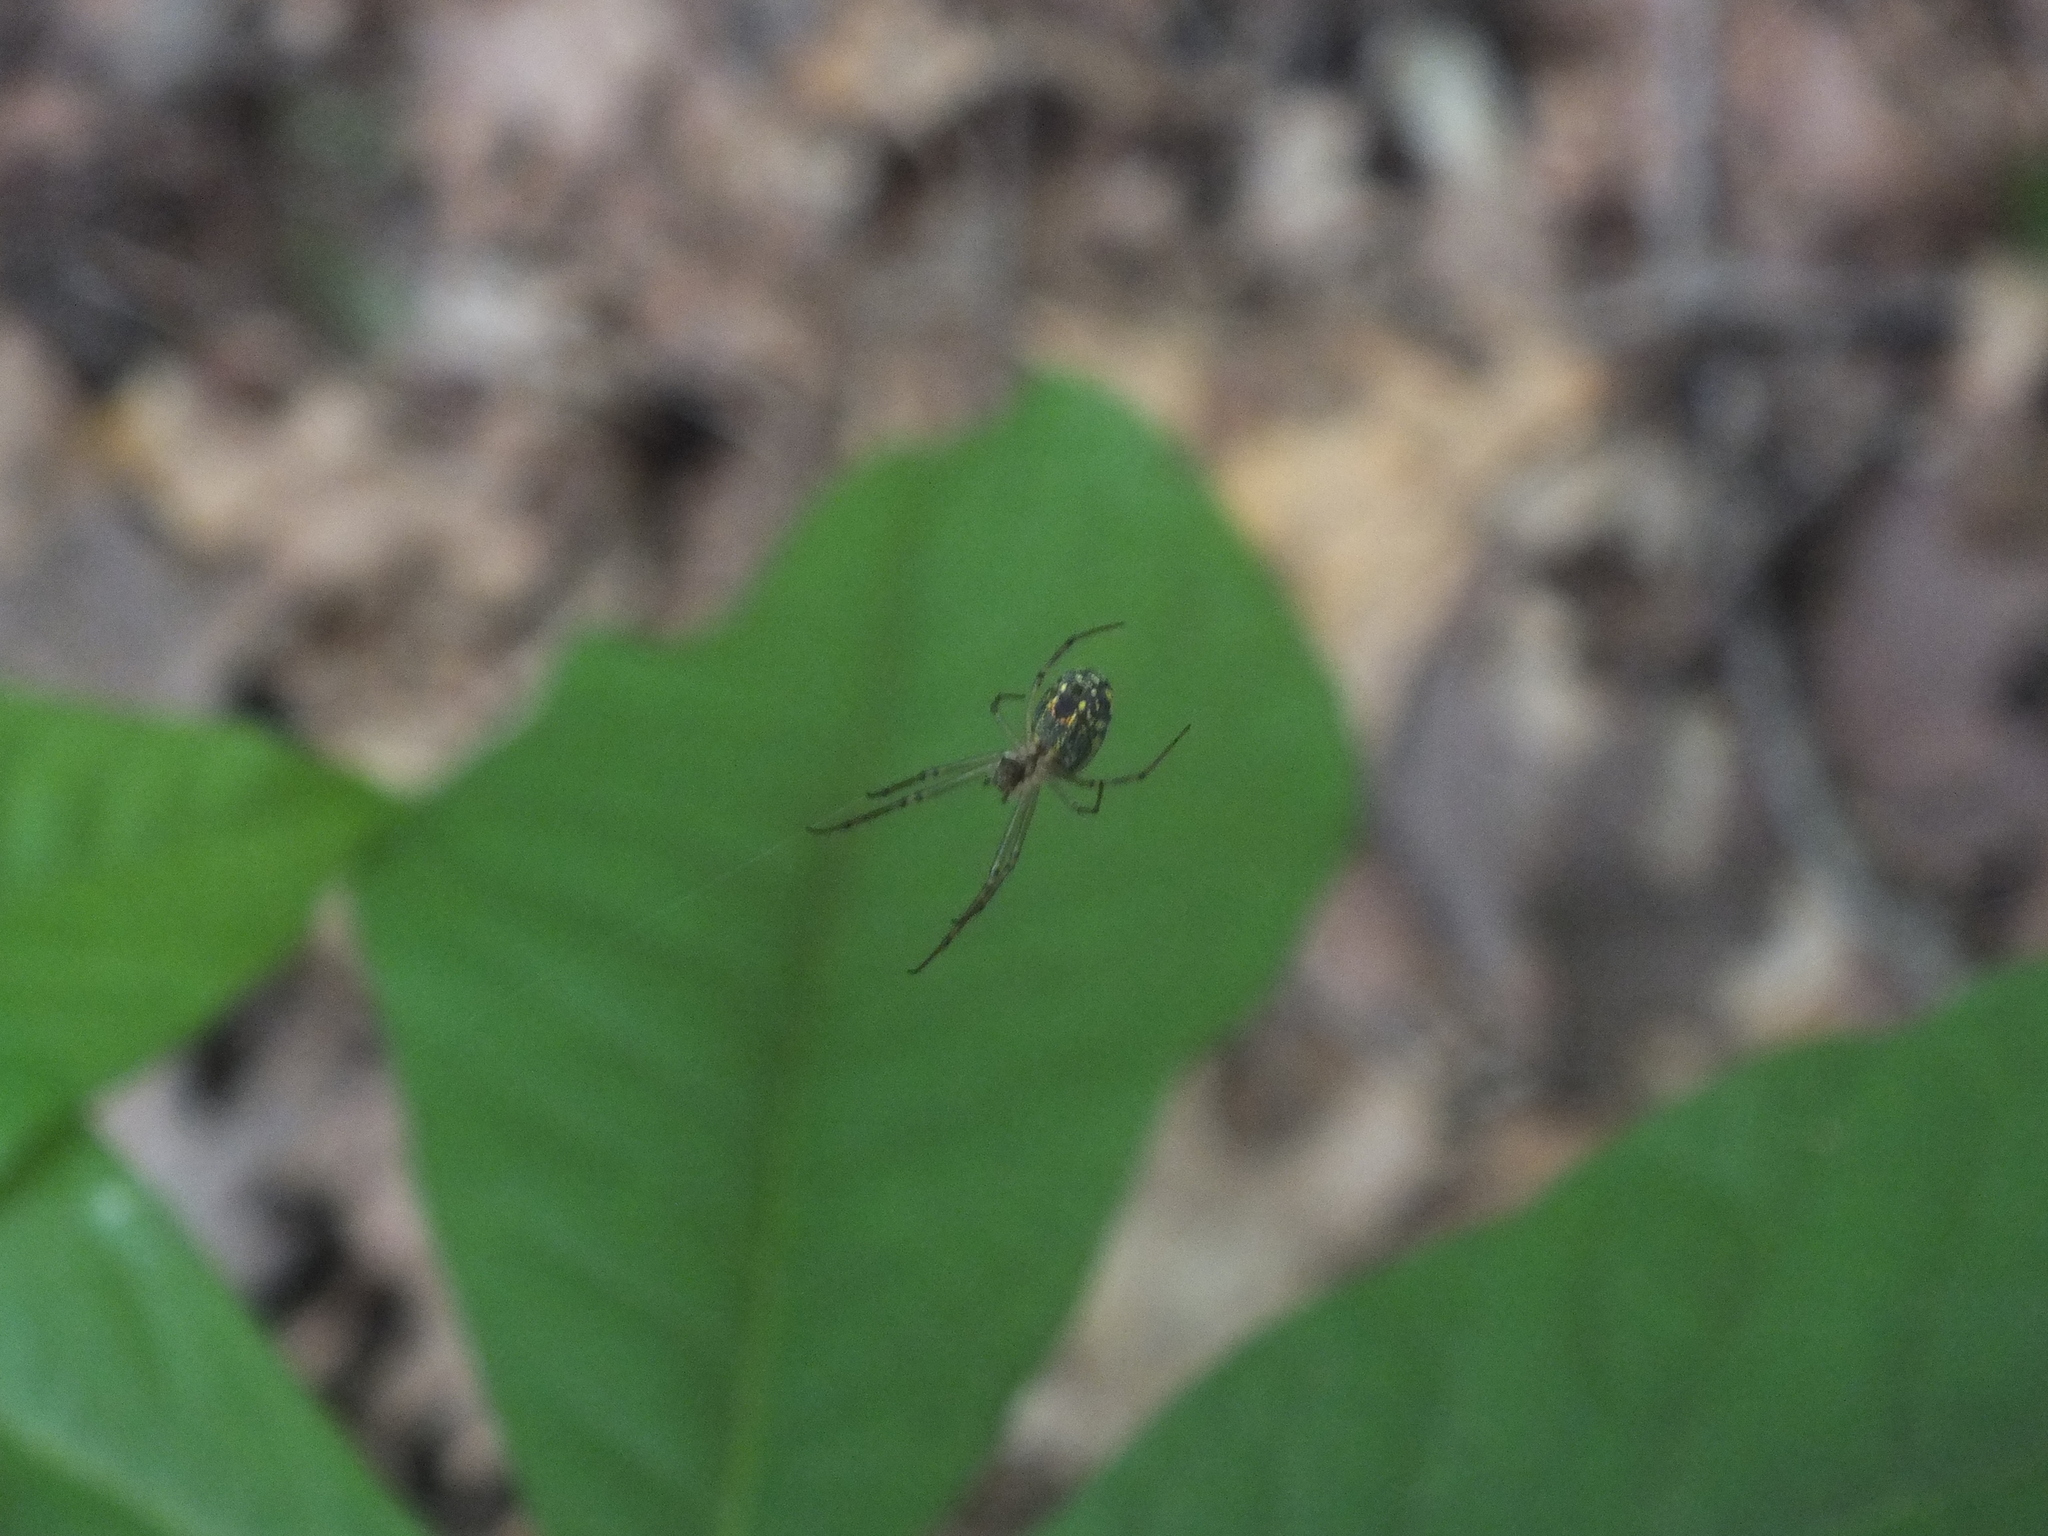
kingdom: Animalia
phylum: Arthropoda
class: Arachnida
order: Araneae
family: Tetragnathidae
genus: Leucauge
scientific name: Leucauge venusta
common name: Longjawed orb weavers
